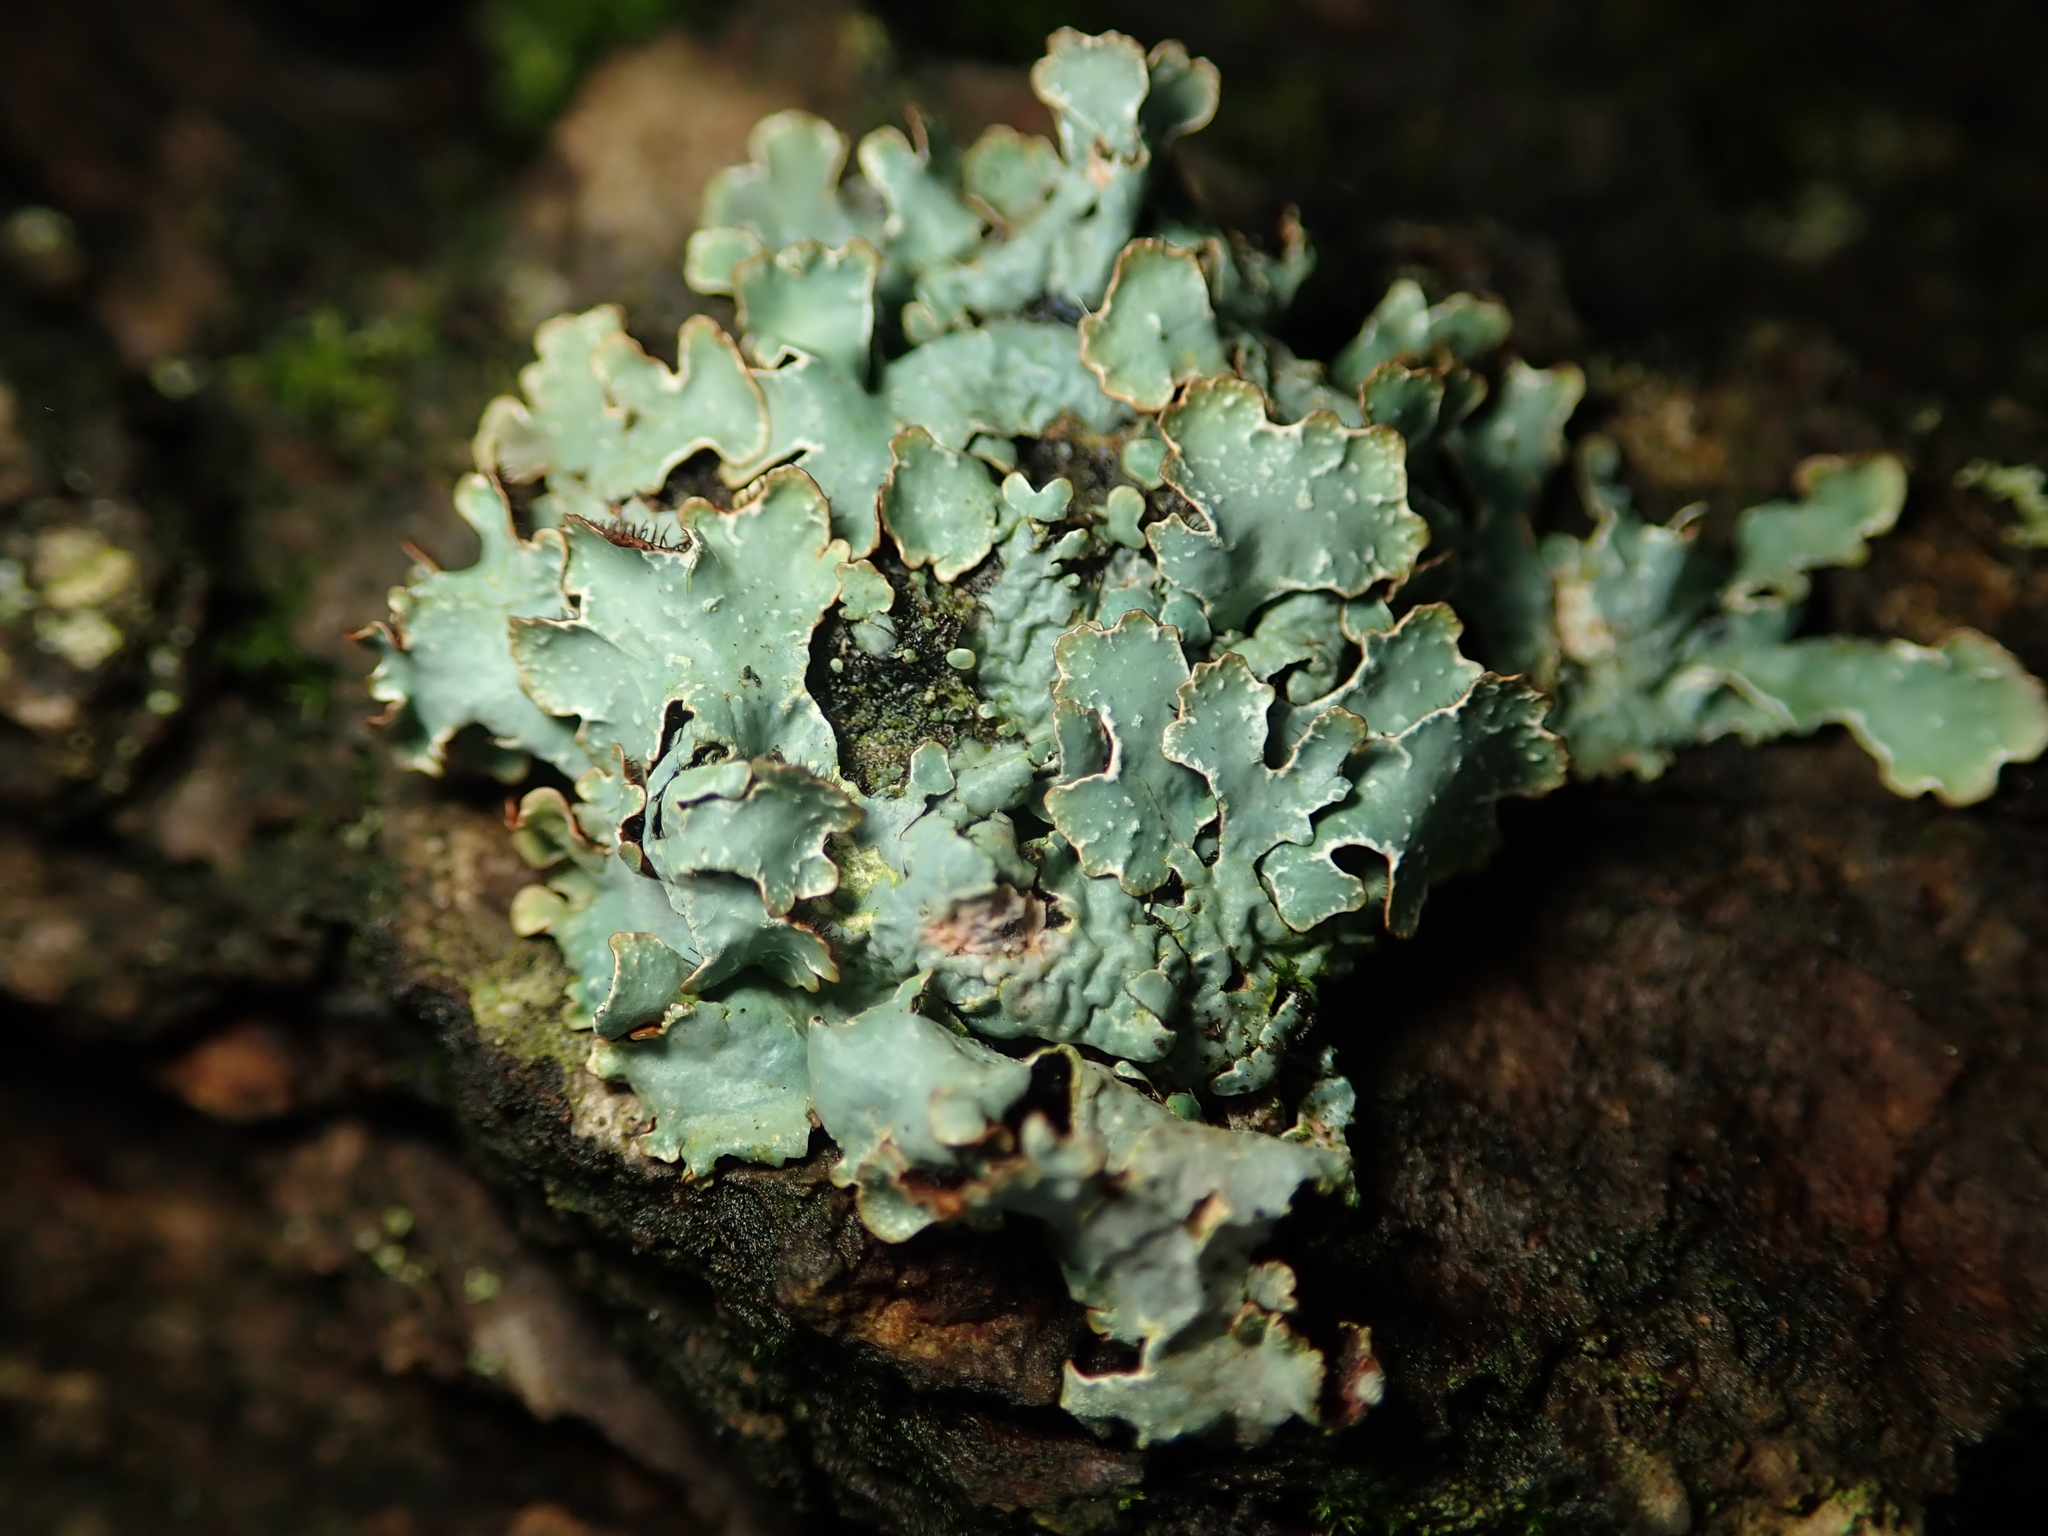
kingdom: Fungi
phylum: Ascomycota
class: Lecanoromycetes
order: Lecanorales
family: Parmeliaceae
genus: Parmelia
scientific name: Parmelia sulcata
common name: Netted shield lichen
